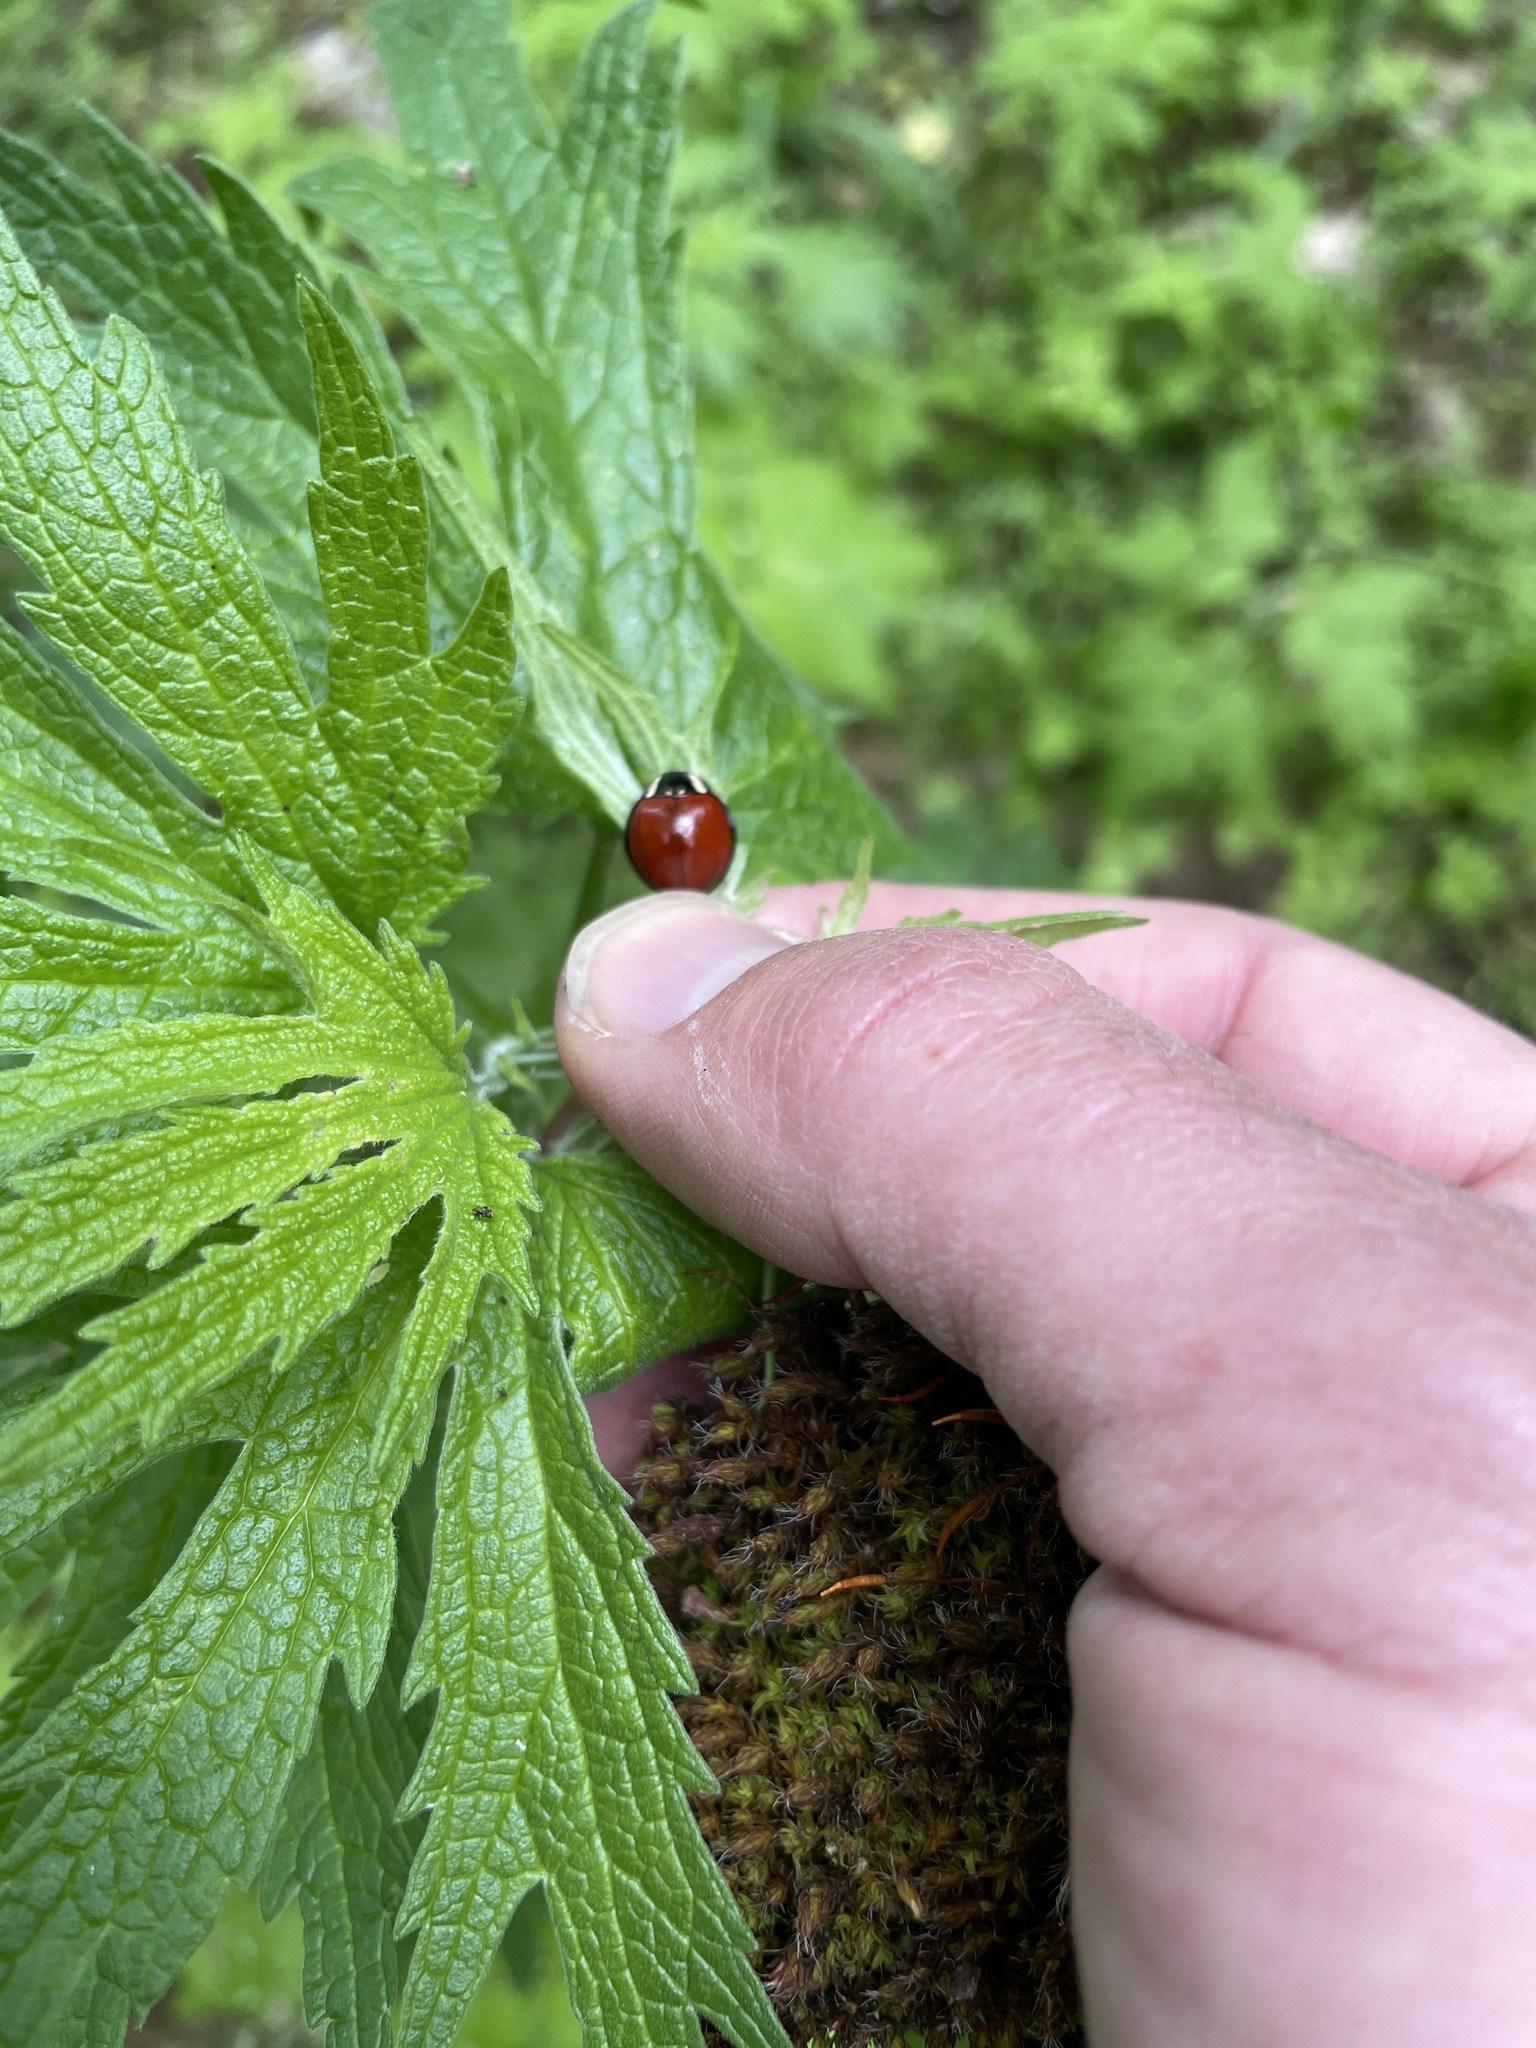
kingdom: Animalia
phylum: Arthropoda
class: Insecta
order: Coleoptera
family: Coccinellidae
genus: Anatis
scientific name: Anatis lecontei
